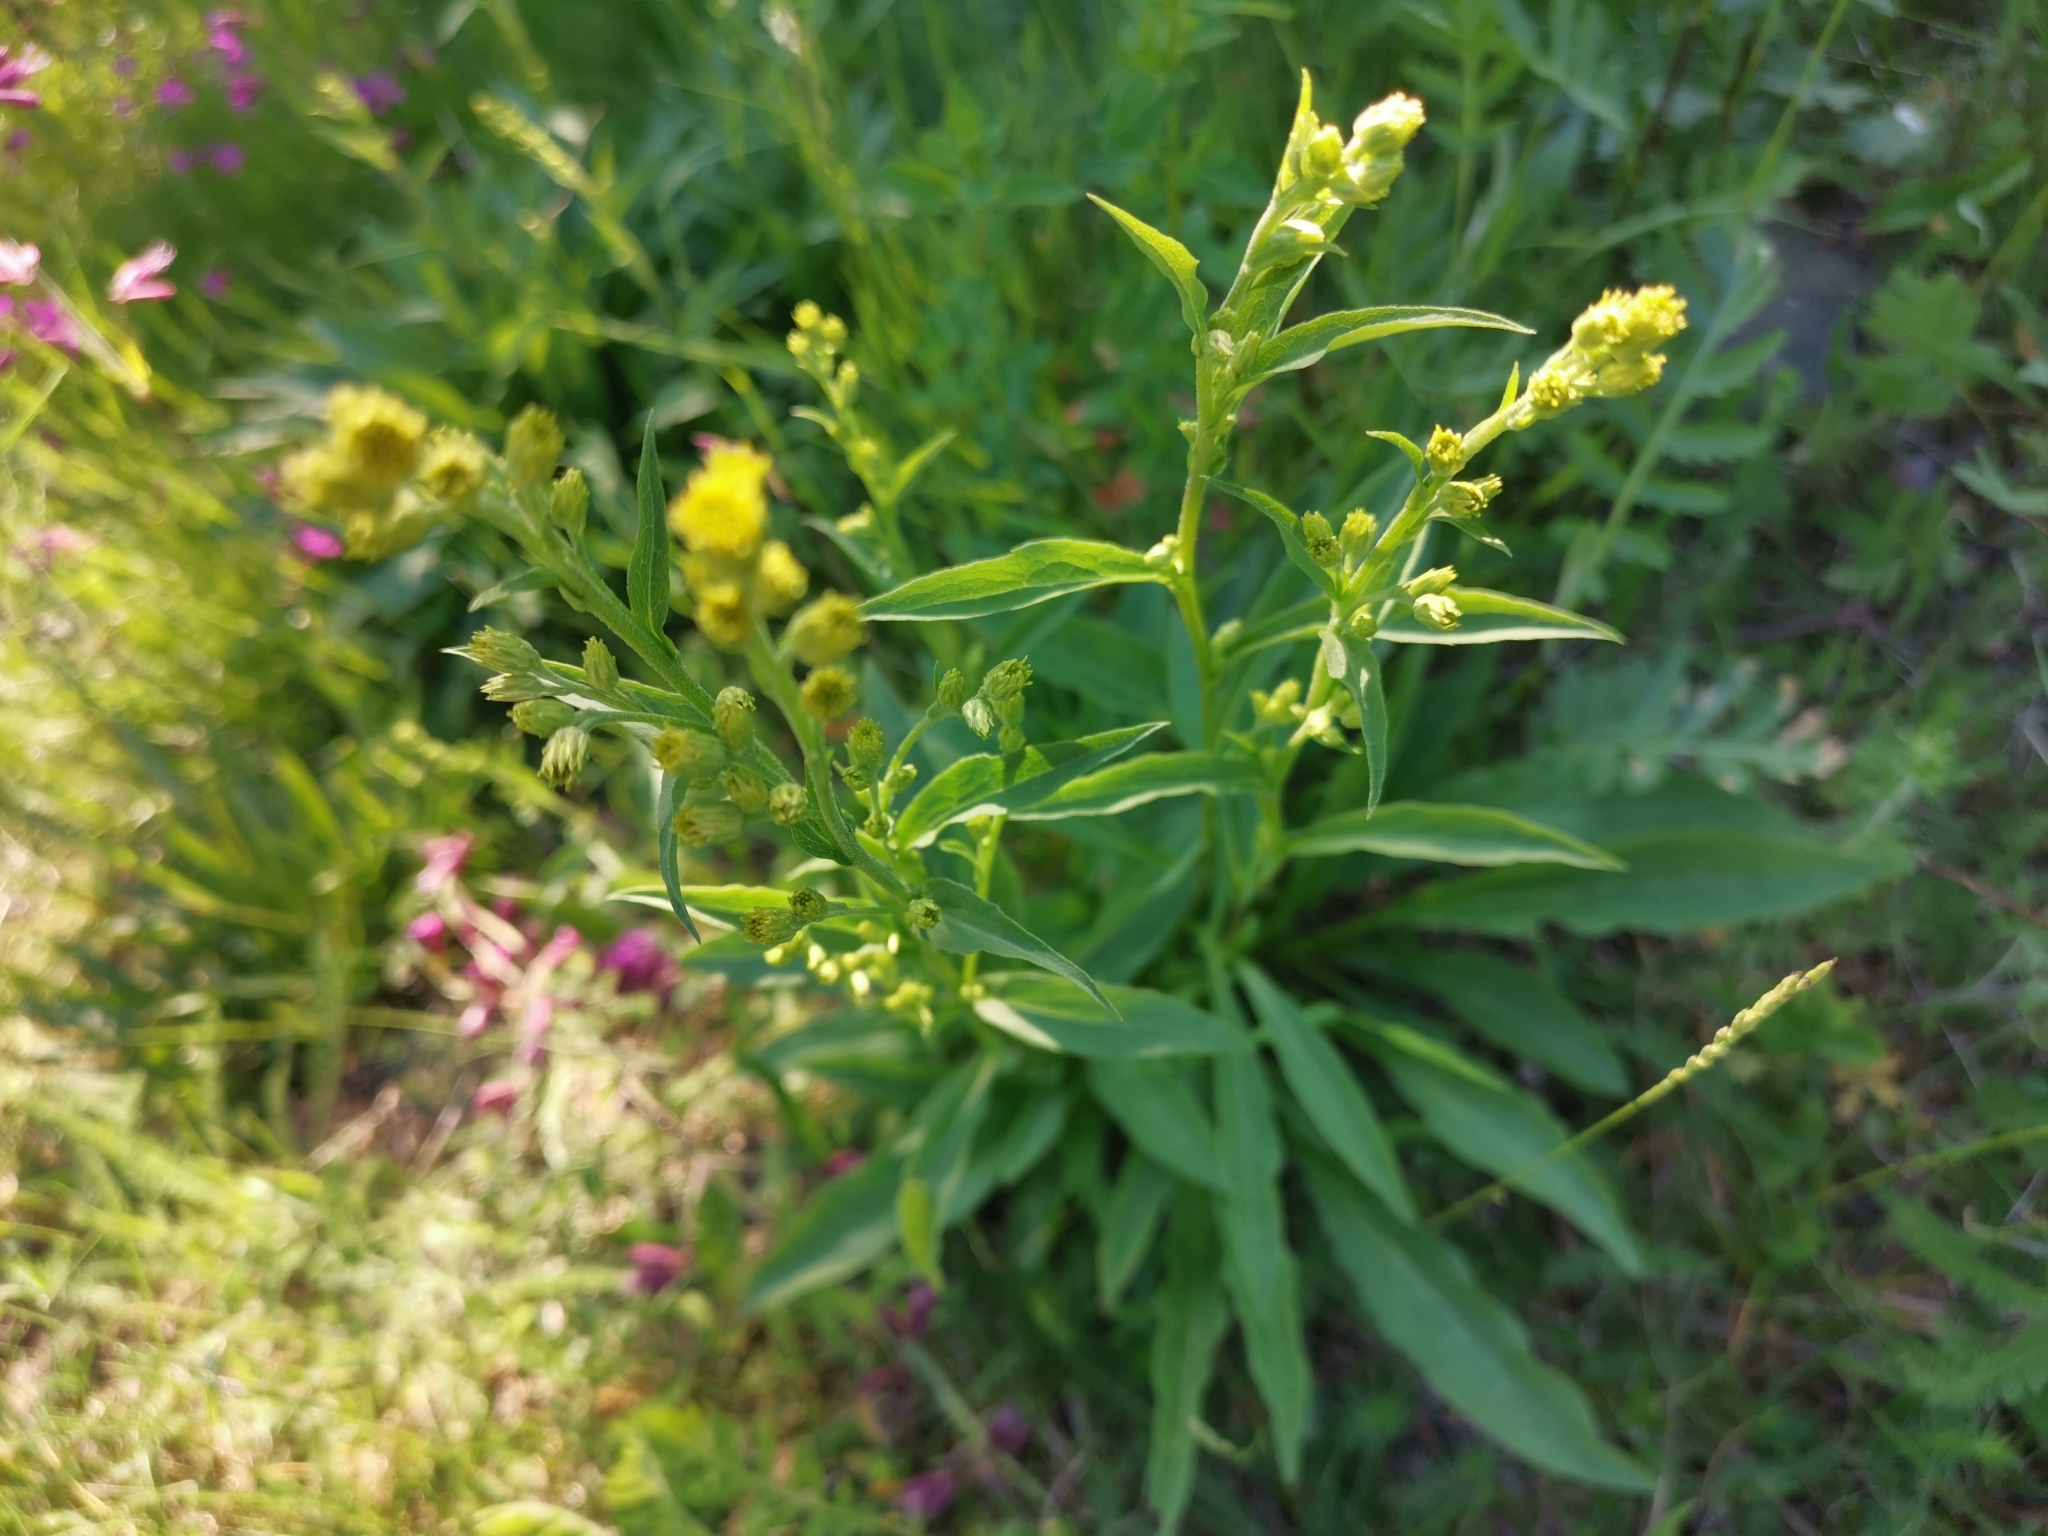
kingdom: Plantae
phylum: Tracheophyta
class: Magnoliopsida
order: Asterales
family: Asteraceae
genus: Solidago
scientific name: Solidago virgaurea
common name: Goldenrod
